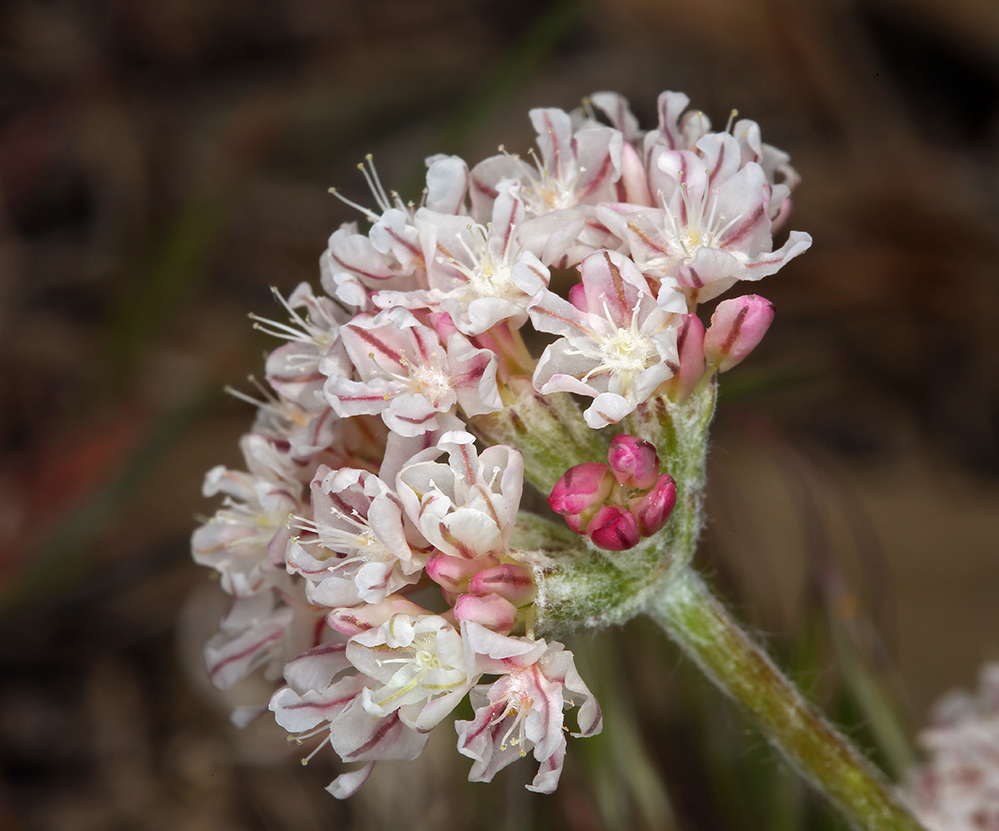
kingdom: Plantae
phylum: Tracheophyta
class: Magnoliopsida
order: Caryophyllales
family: Polygonaceae
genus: Eriogonum
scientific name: Eriogonum ovalifolium
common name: Cushion buckwheat
